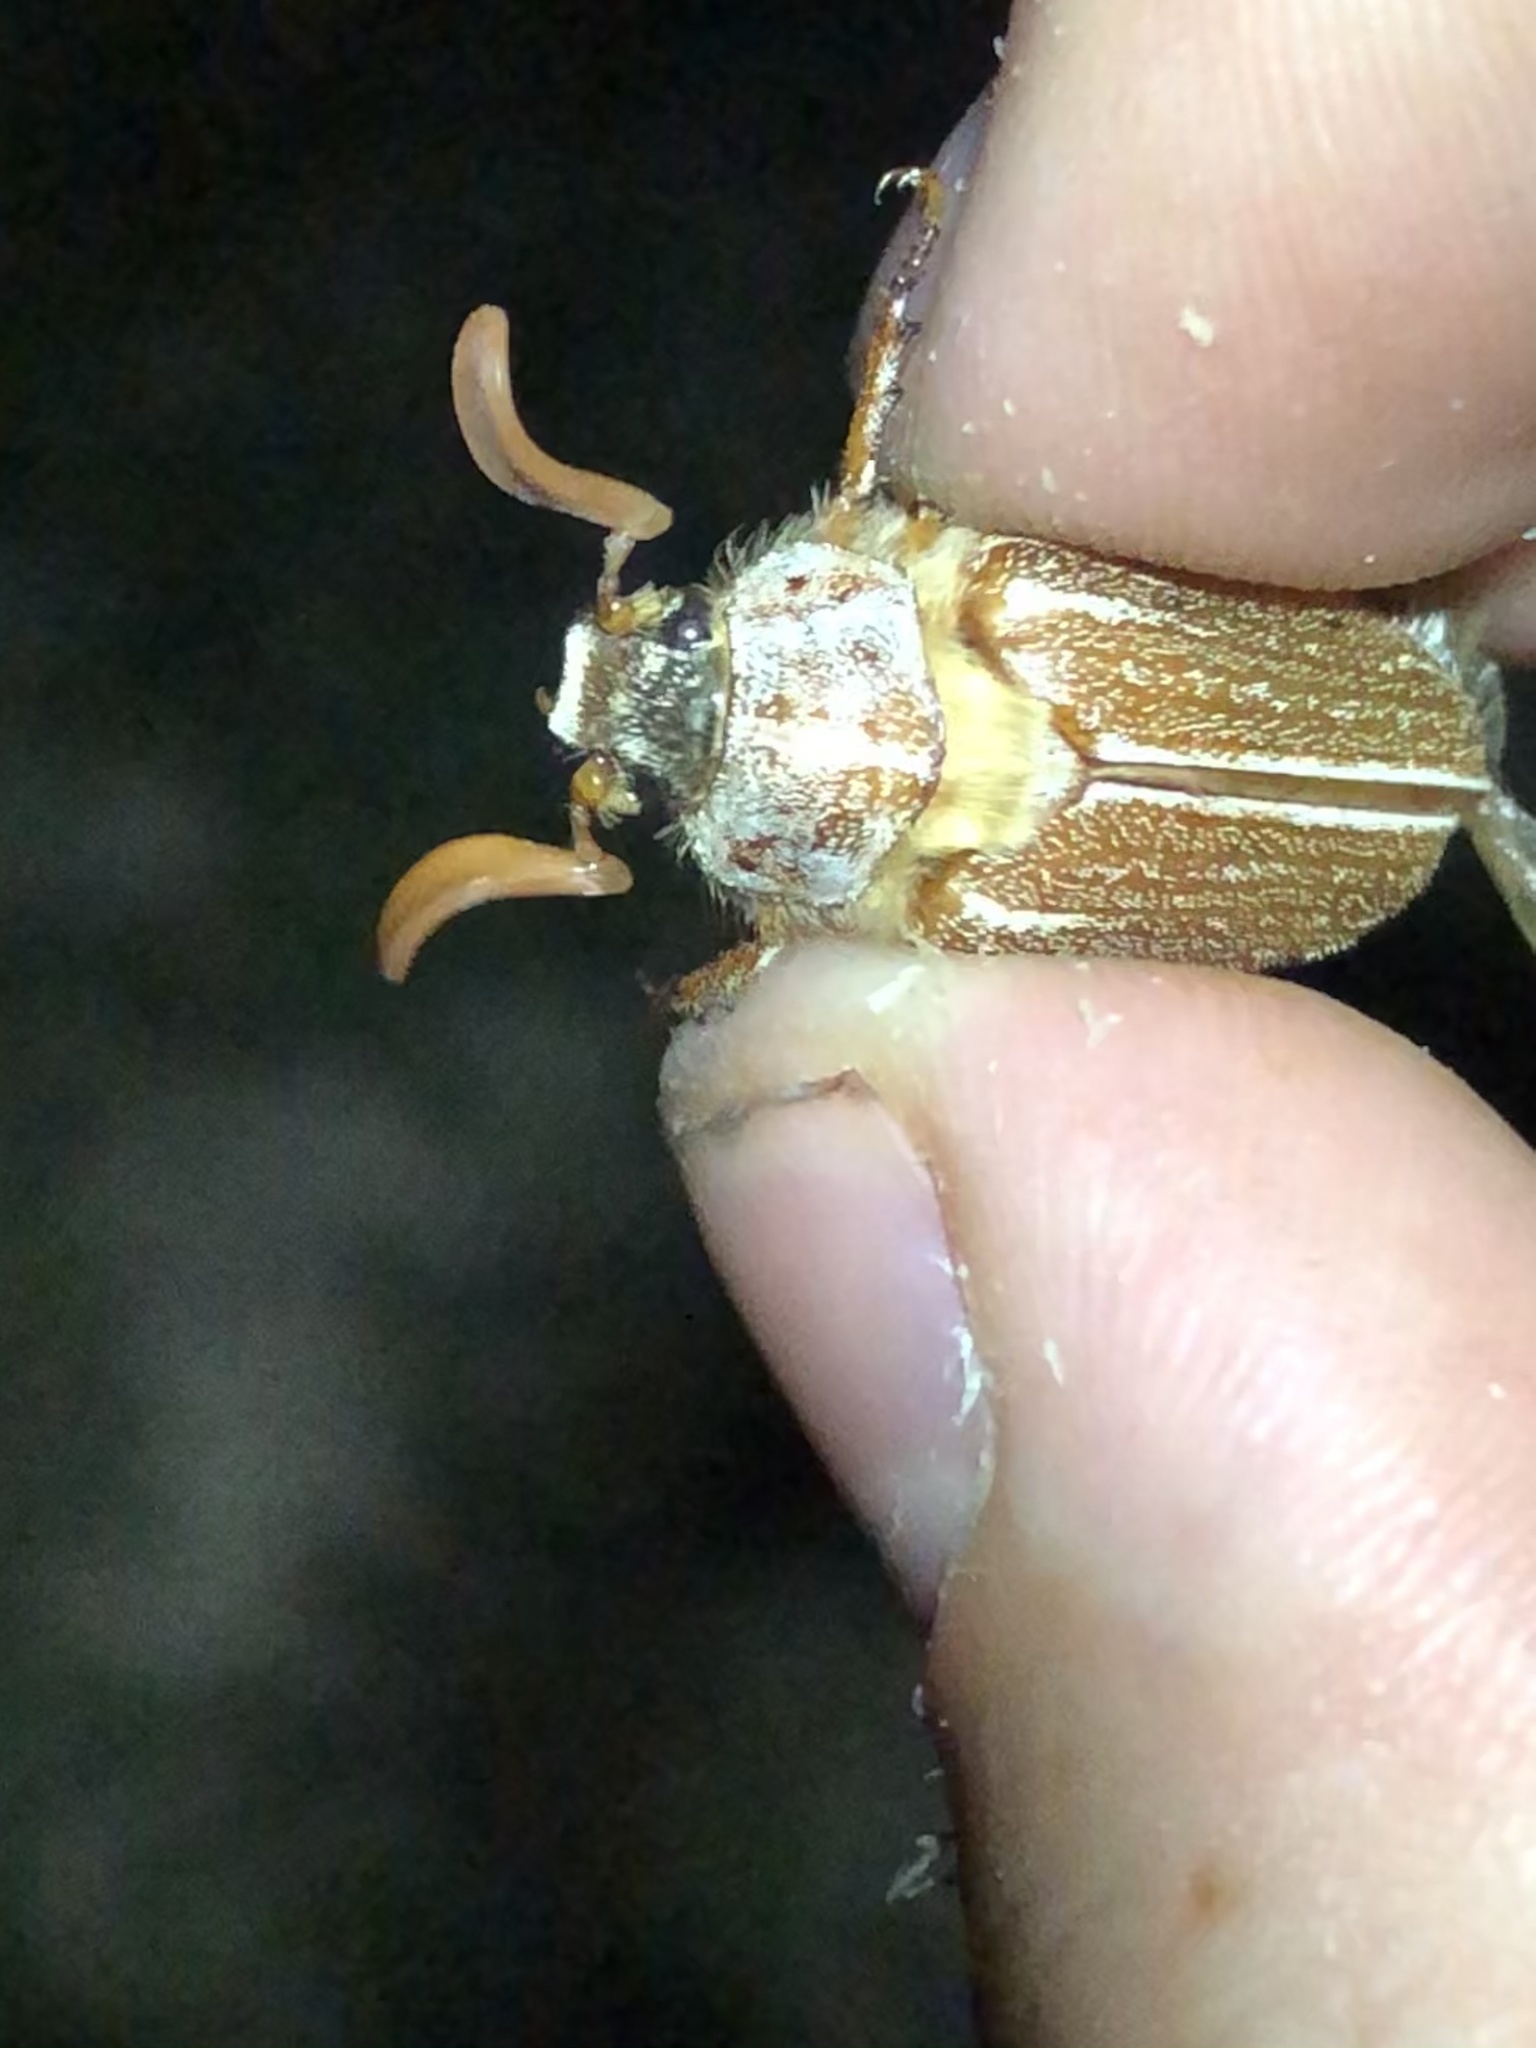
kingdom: Animalia
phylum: Arthropoda
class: Insecta
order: Coleoptera
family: Scarabaeidae
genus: Polyphylla
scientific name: Polyphylla pottsorum
